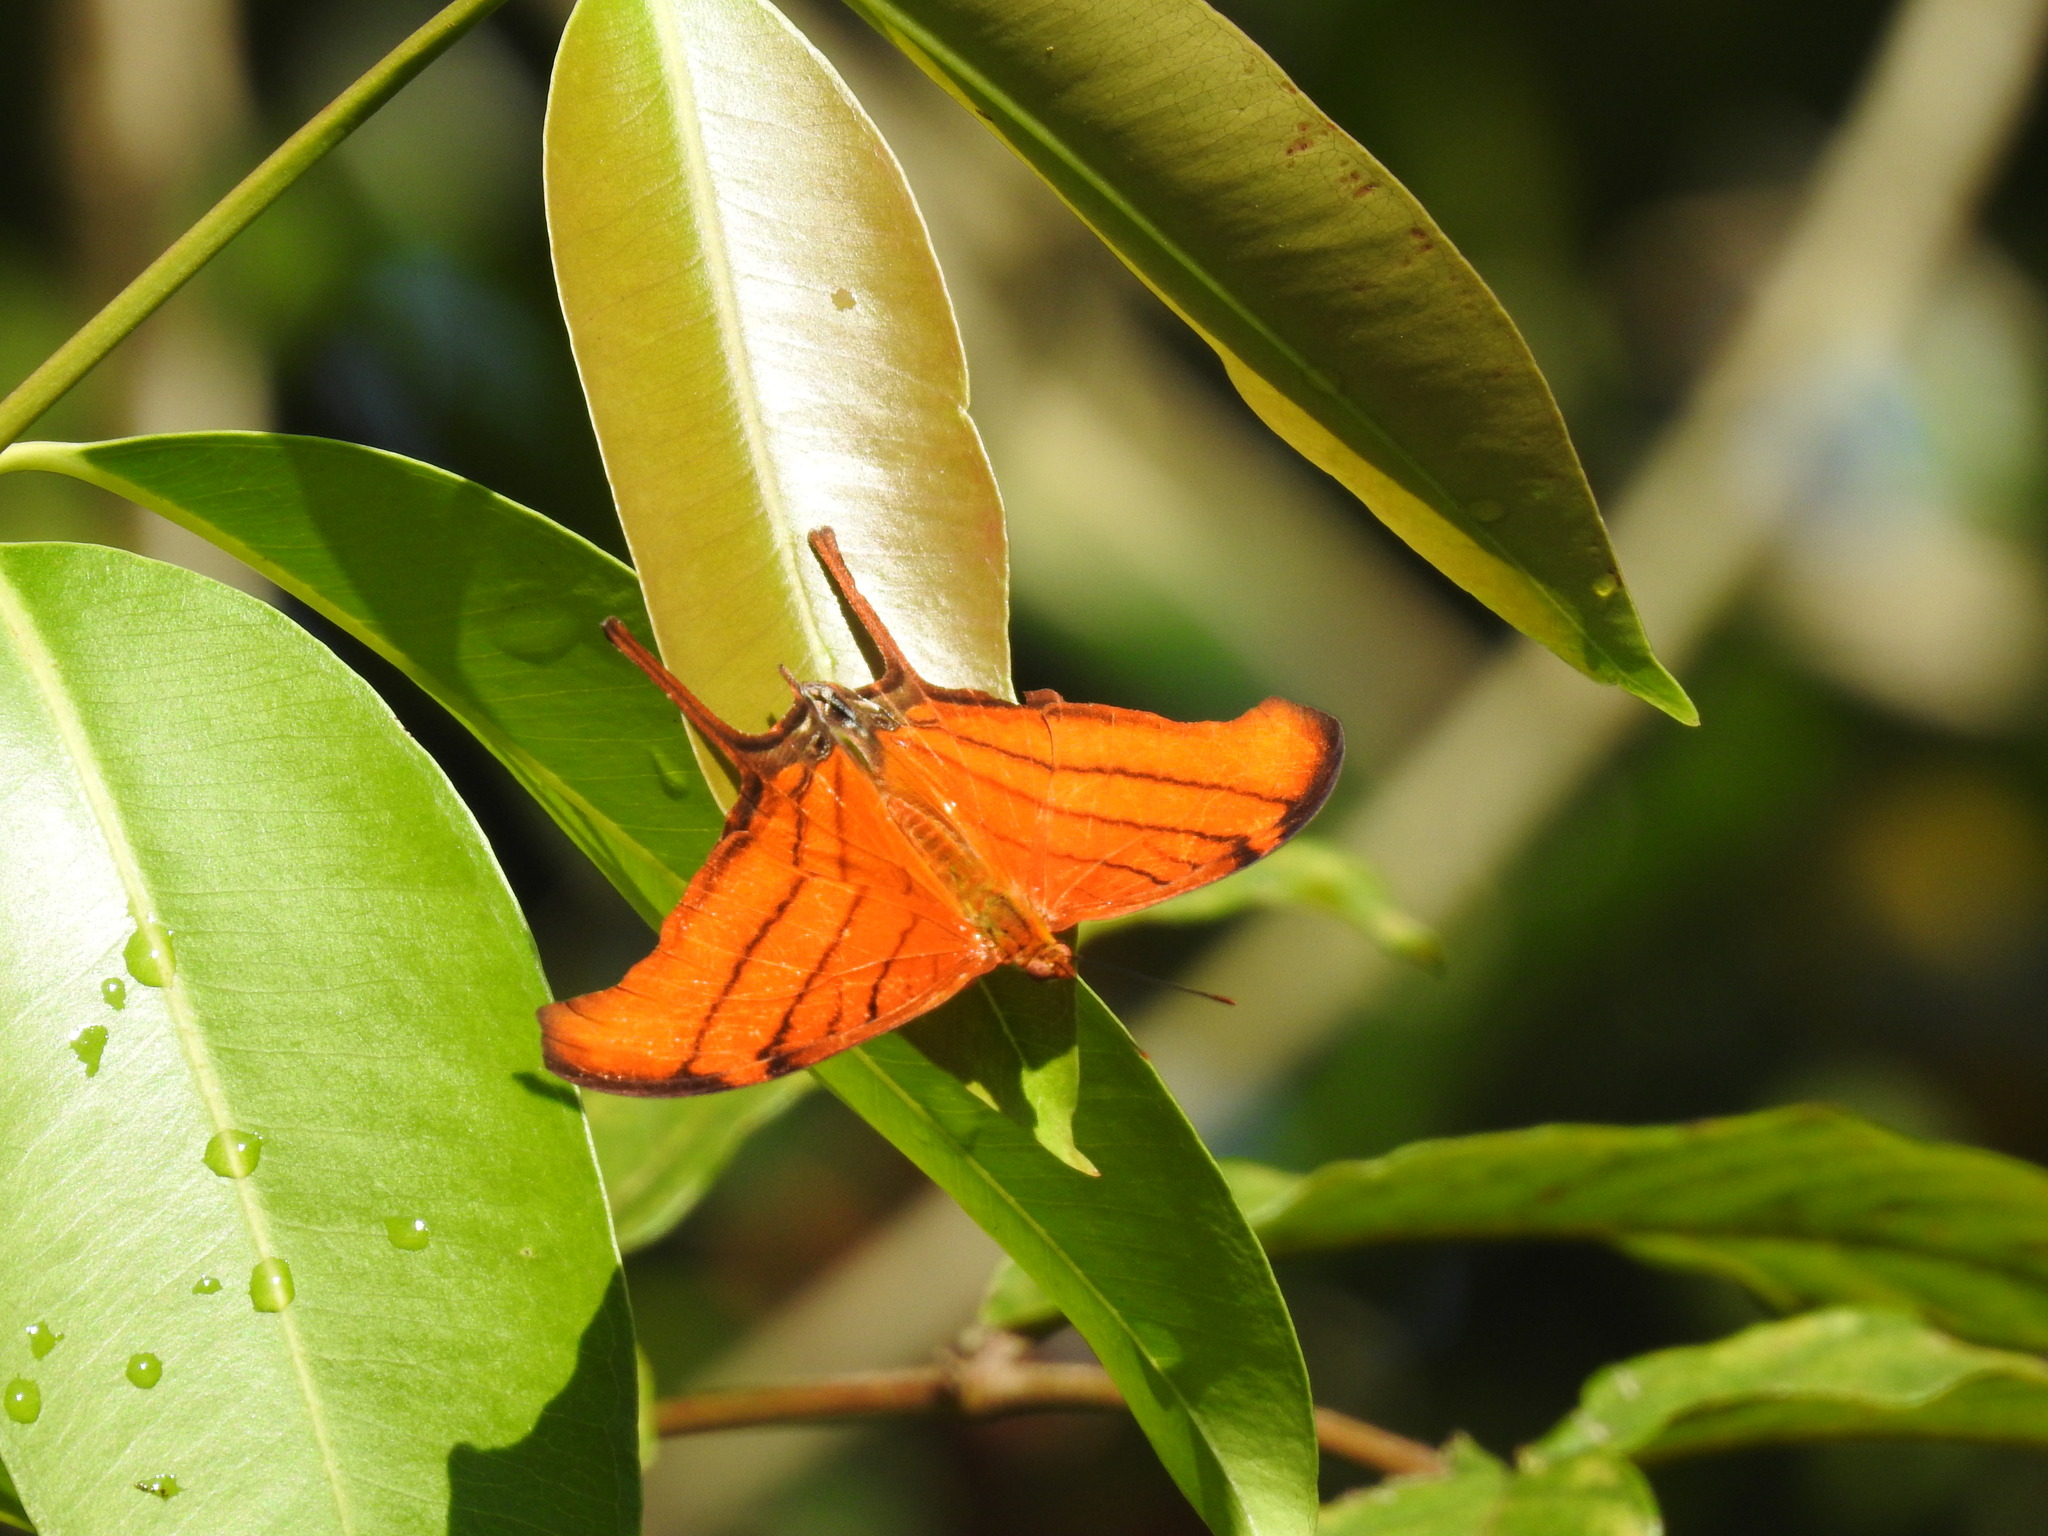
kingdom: Animalia
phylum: Arthropoda
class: Insecta
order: Lepidoptera
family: Nymphalidae
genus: Marpesia
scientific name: Marpesia petreus
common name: Red dagger wing
